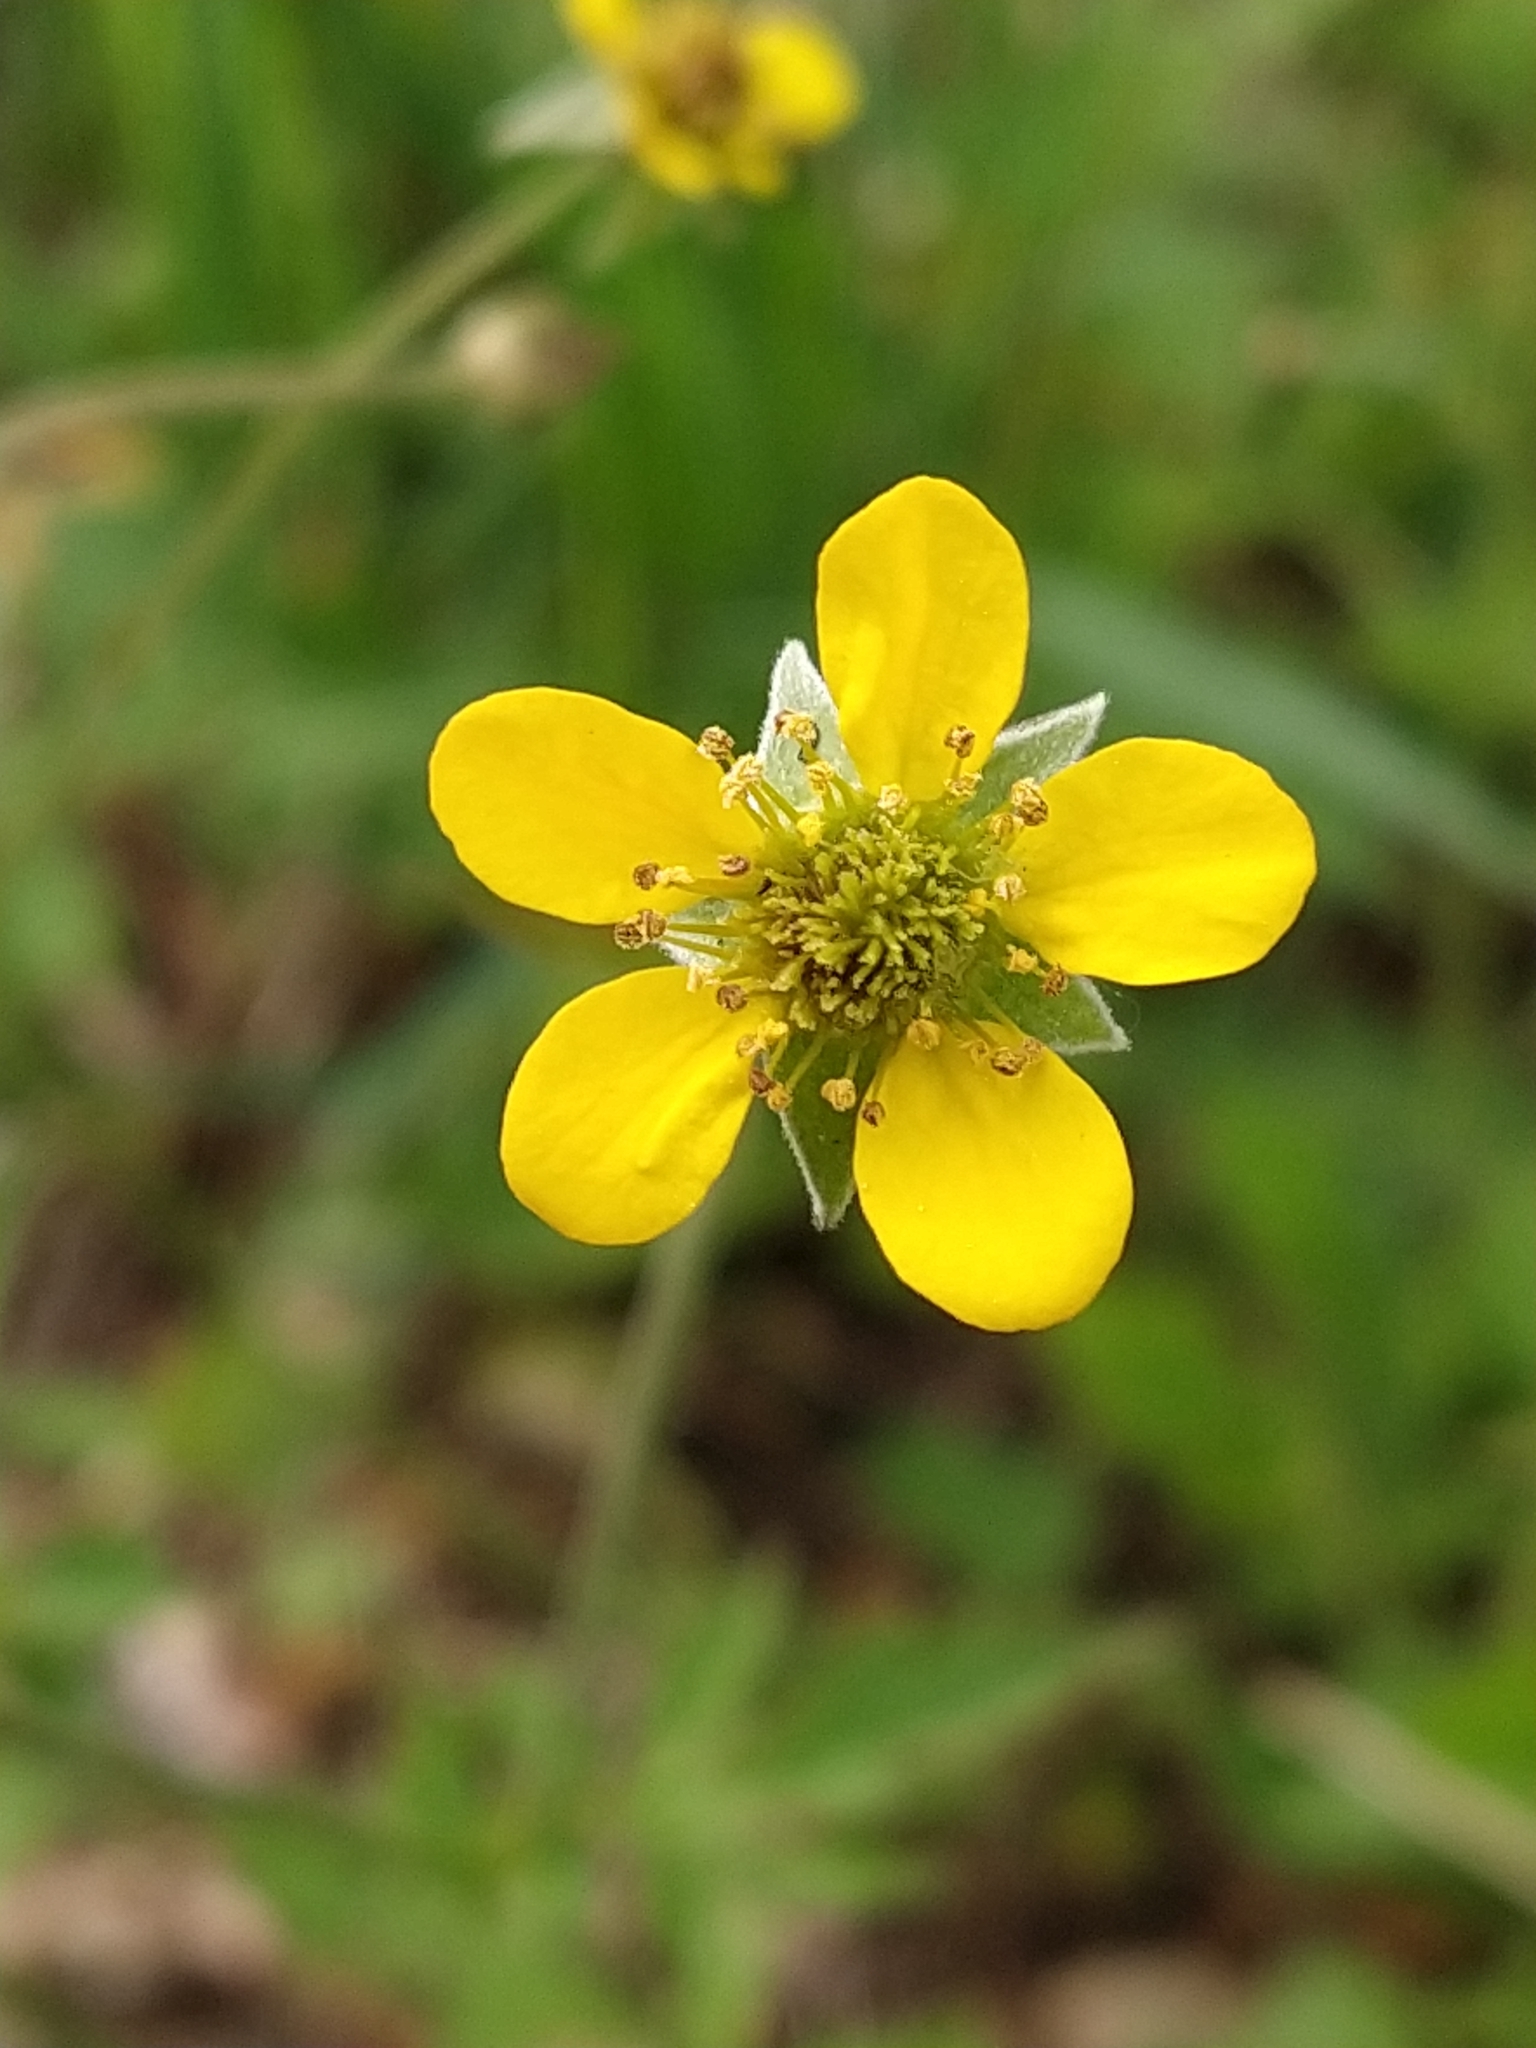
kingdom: Plantae
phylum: Tracheophyta
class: Magnoliopsida
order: Rosales
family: Rosaceae
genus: Geum
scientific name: Geum urbanum
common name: Wood avens
